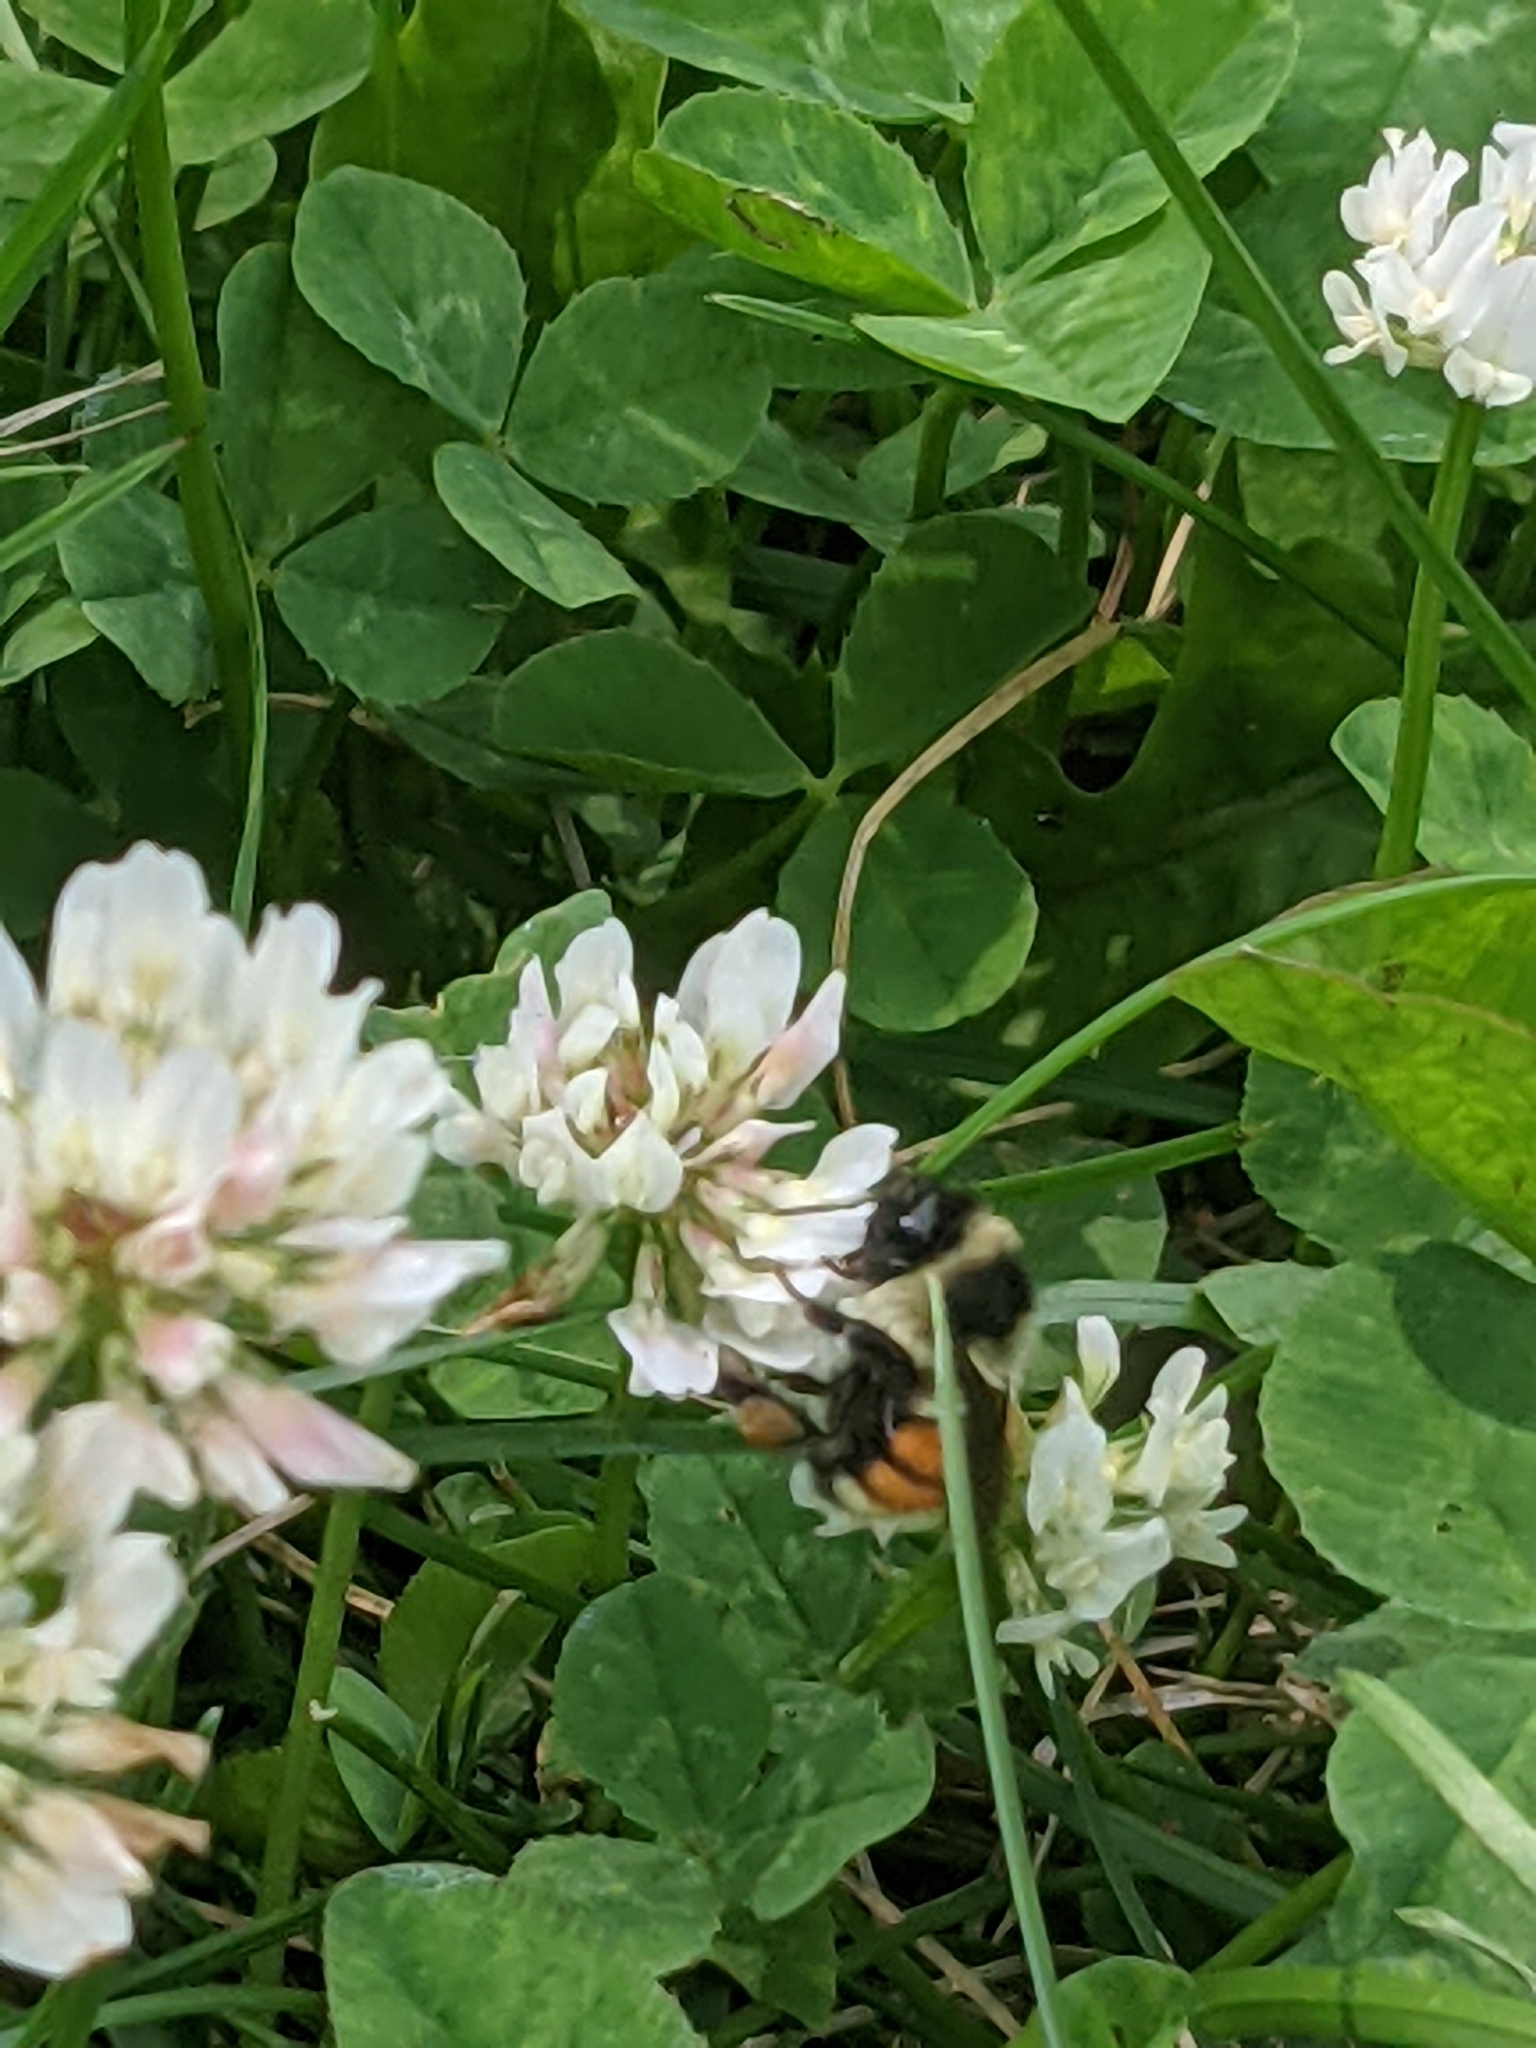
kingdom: Animalia
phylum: Arthropoda
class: Insecta
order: Hymenoptera
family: Apidae
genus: Bombus
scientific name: Bombus ternarius
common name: Tri-colored bumble bee
